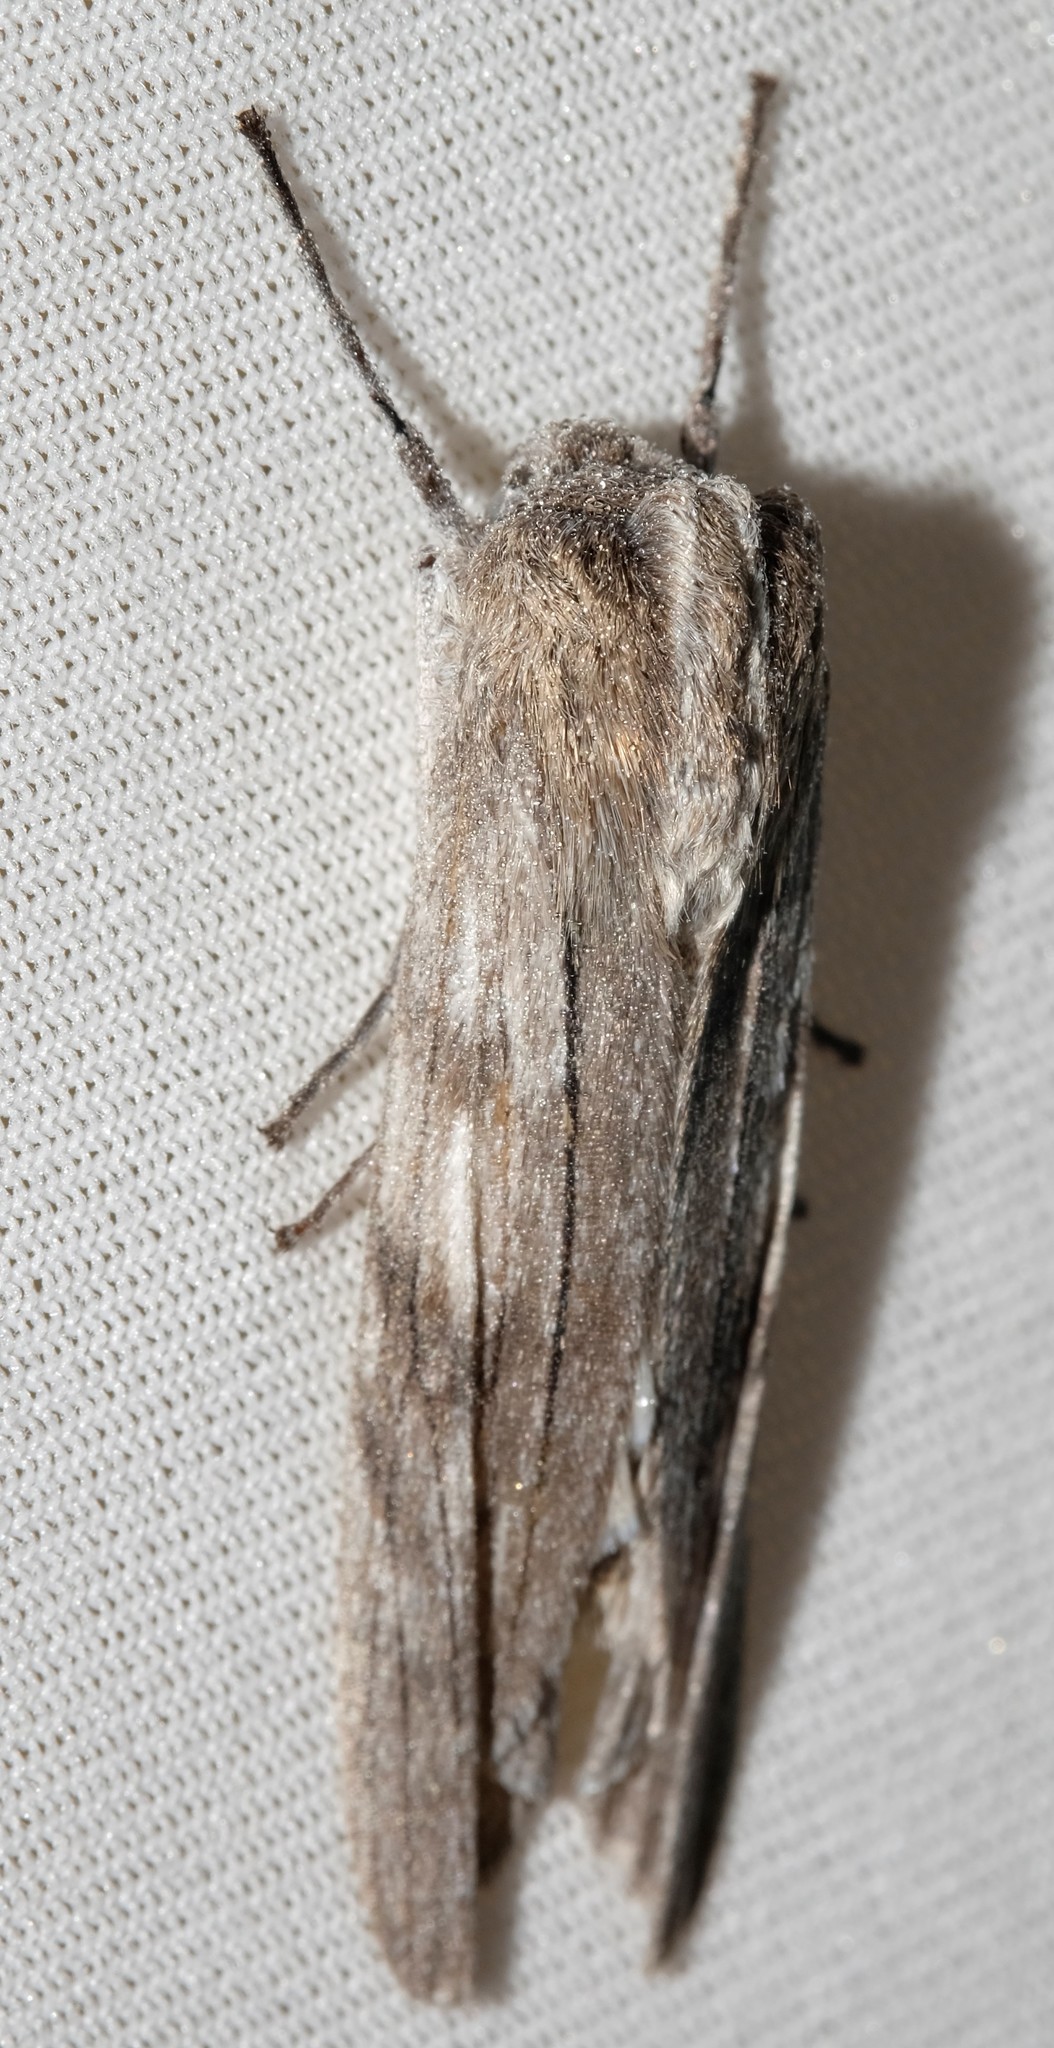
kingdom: Animalia
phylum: Arthropoda
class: Insecta
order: Lepidoptera
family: Geometridae
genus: Capusa
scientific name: Capusa
